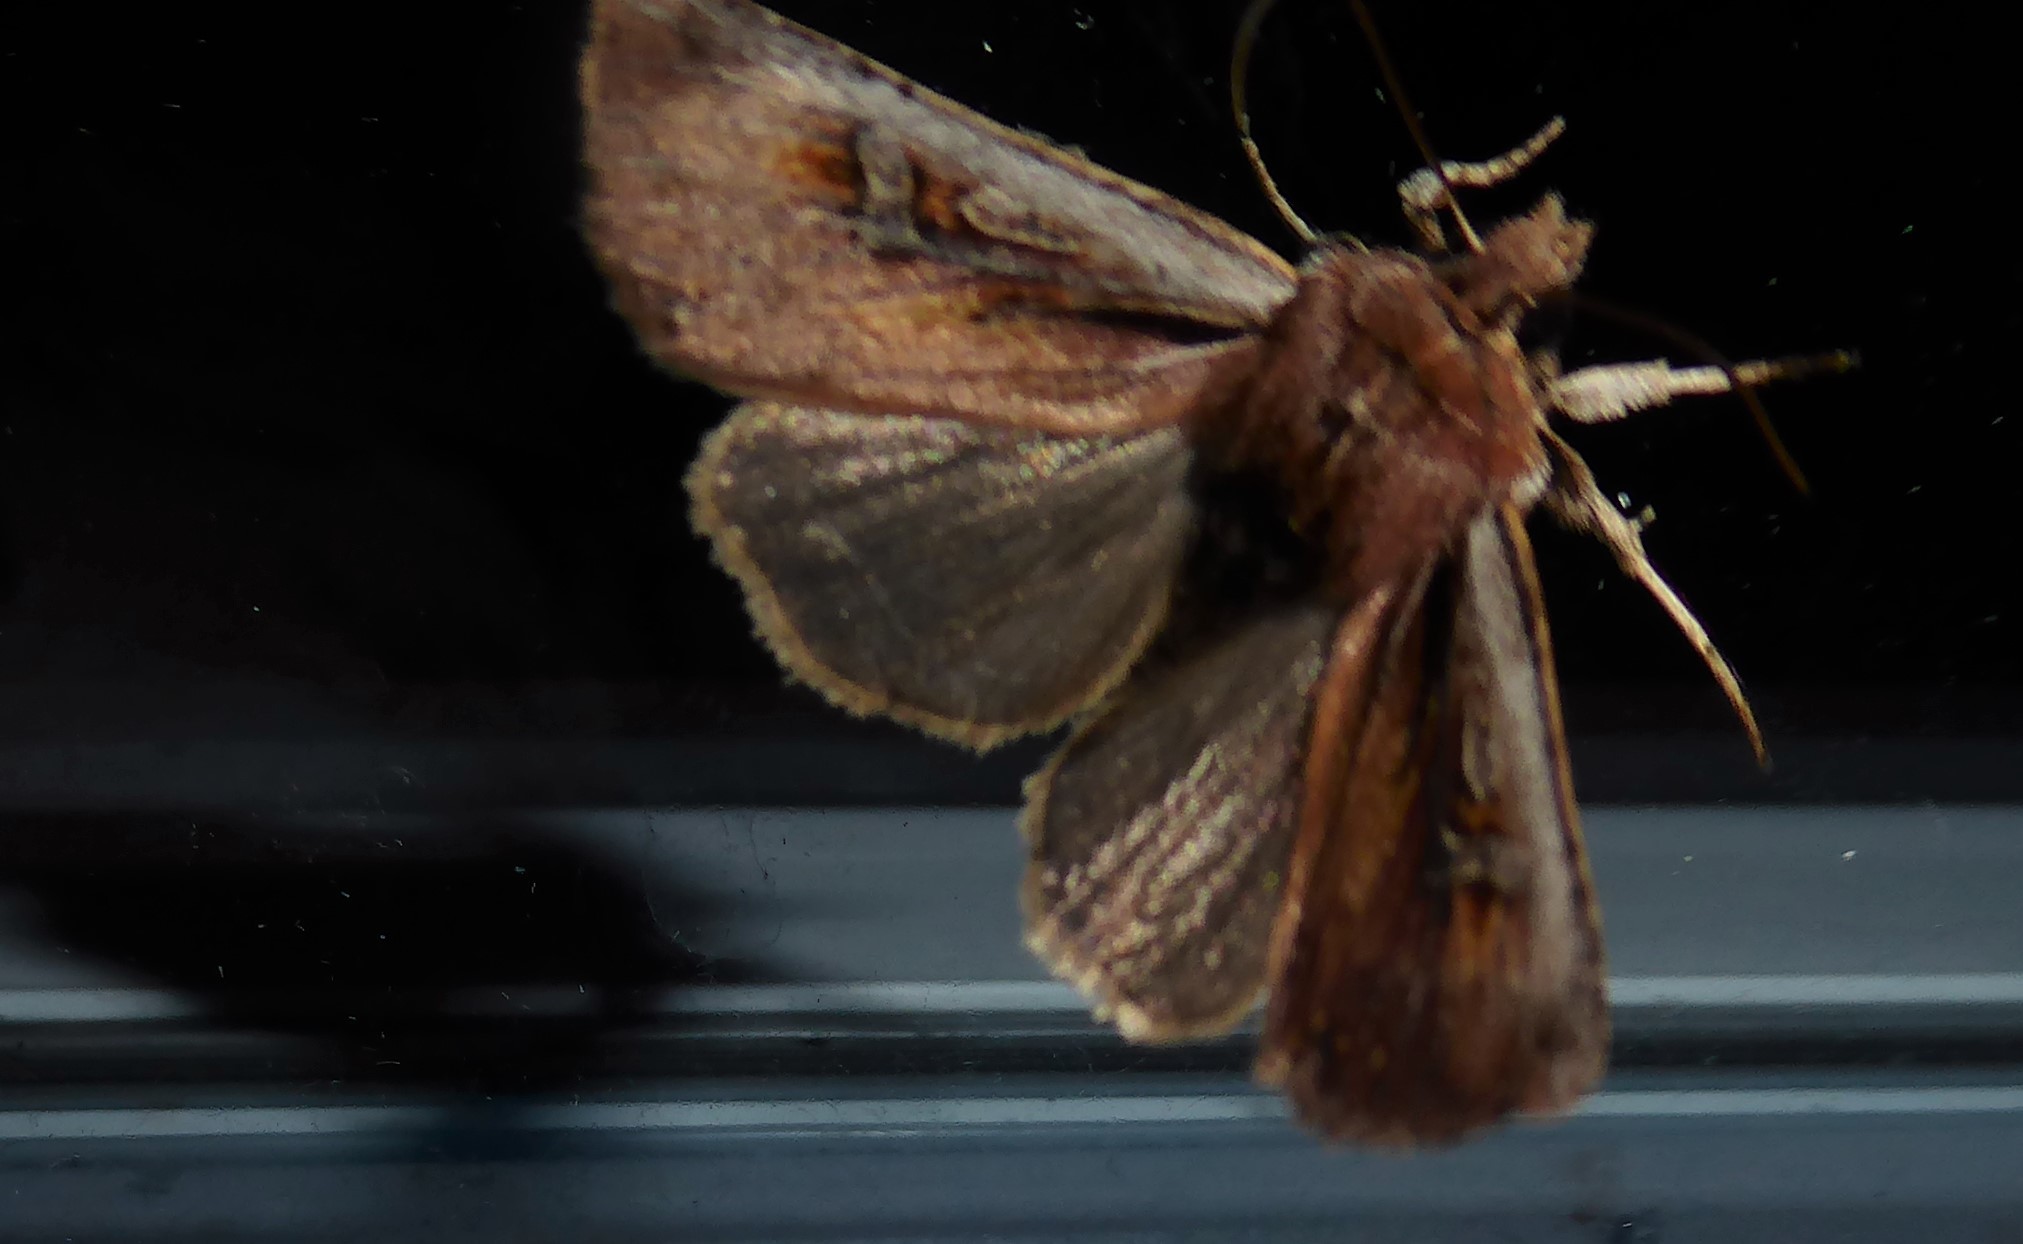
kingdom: Animalia
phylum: Arthropoda
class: Insecta
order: Lepidoptera
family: Noctuidae
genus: Ichneutica
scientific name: Ichneutica atristriga
